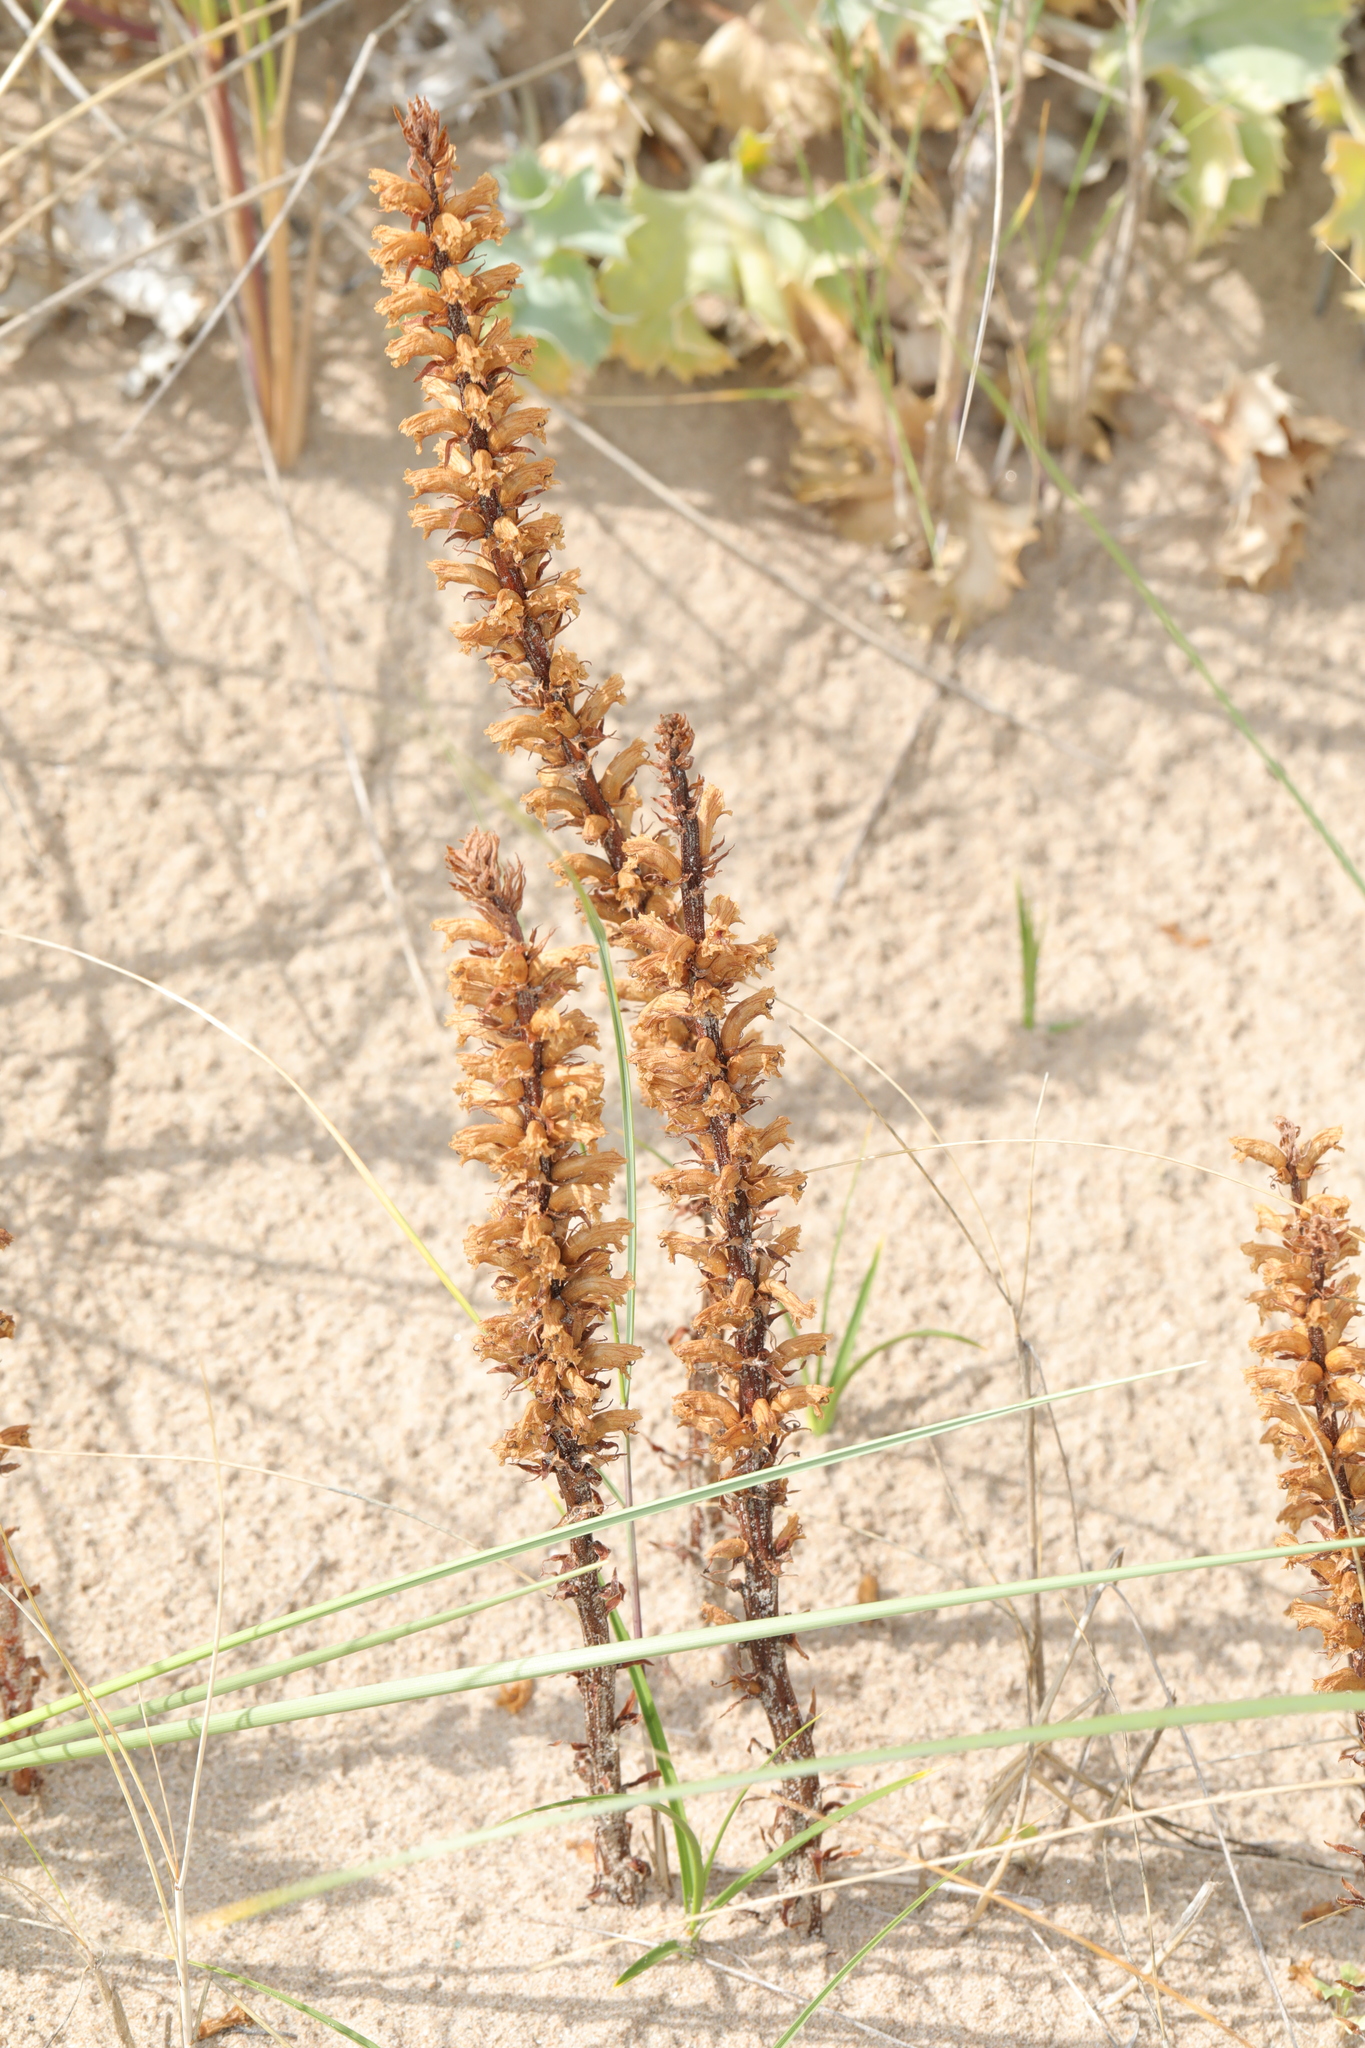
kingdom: Plantae
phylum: Tracheophyta
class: Magnoliopsida
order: Lamiales
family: Orobanchaceae
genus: Orobanche
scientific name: Orobanche minor
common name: Common broomrape
